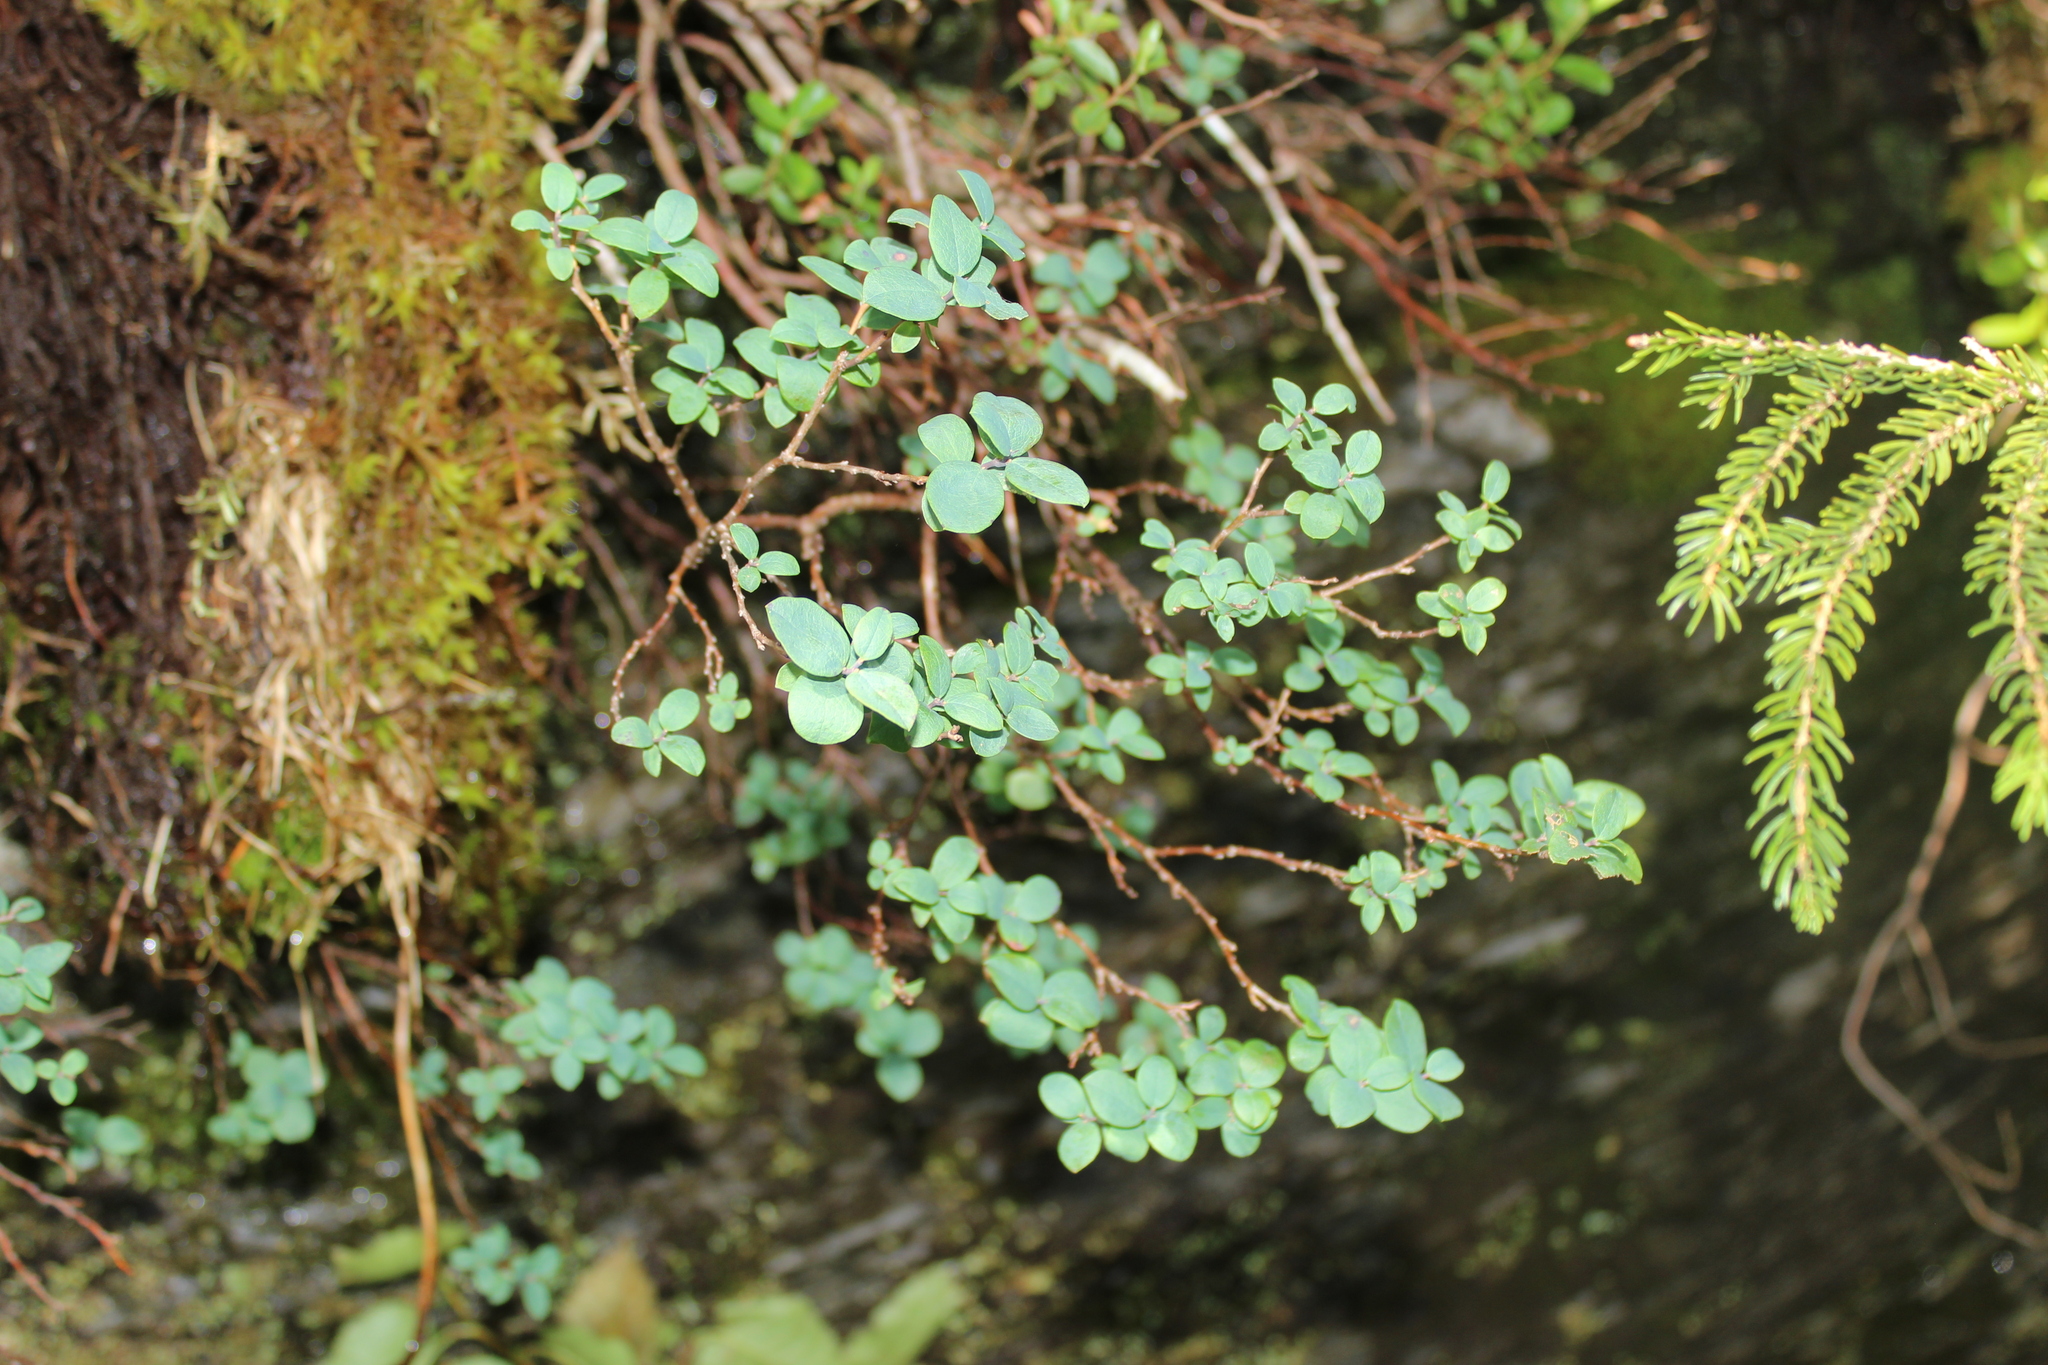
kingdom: Plantae
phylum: Tracheophyta
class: Magnoliopsida
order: Ericales
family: Ericaceae
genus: Vaccinium
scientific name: Vaccinium uliginosum
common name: Bog bilberry
